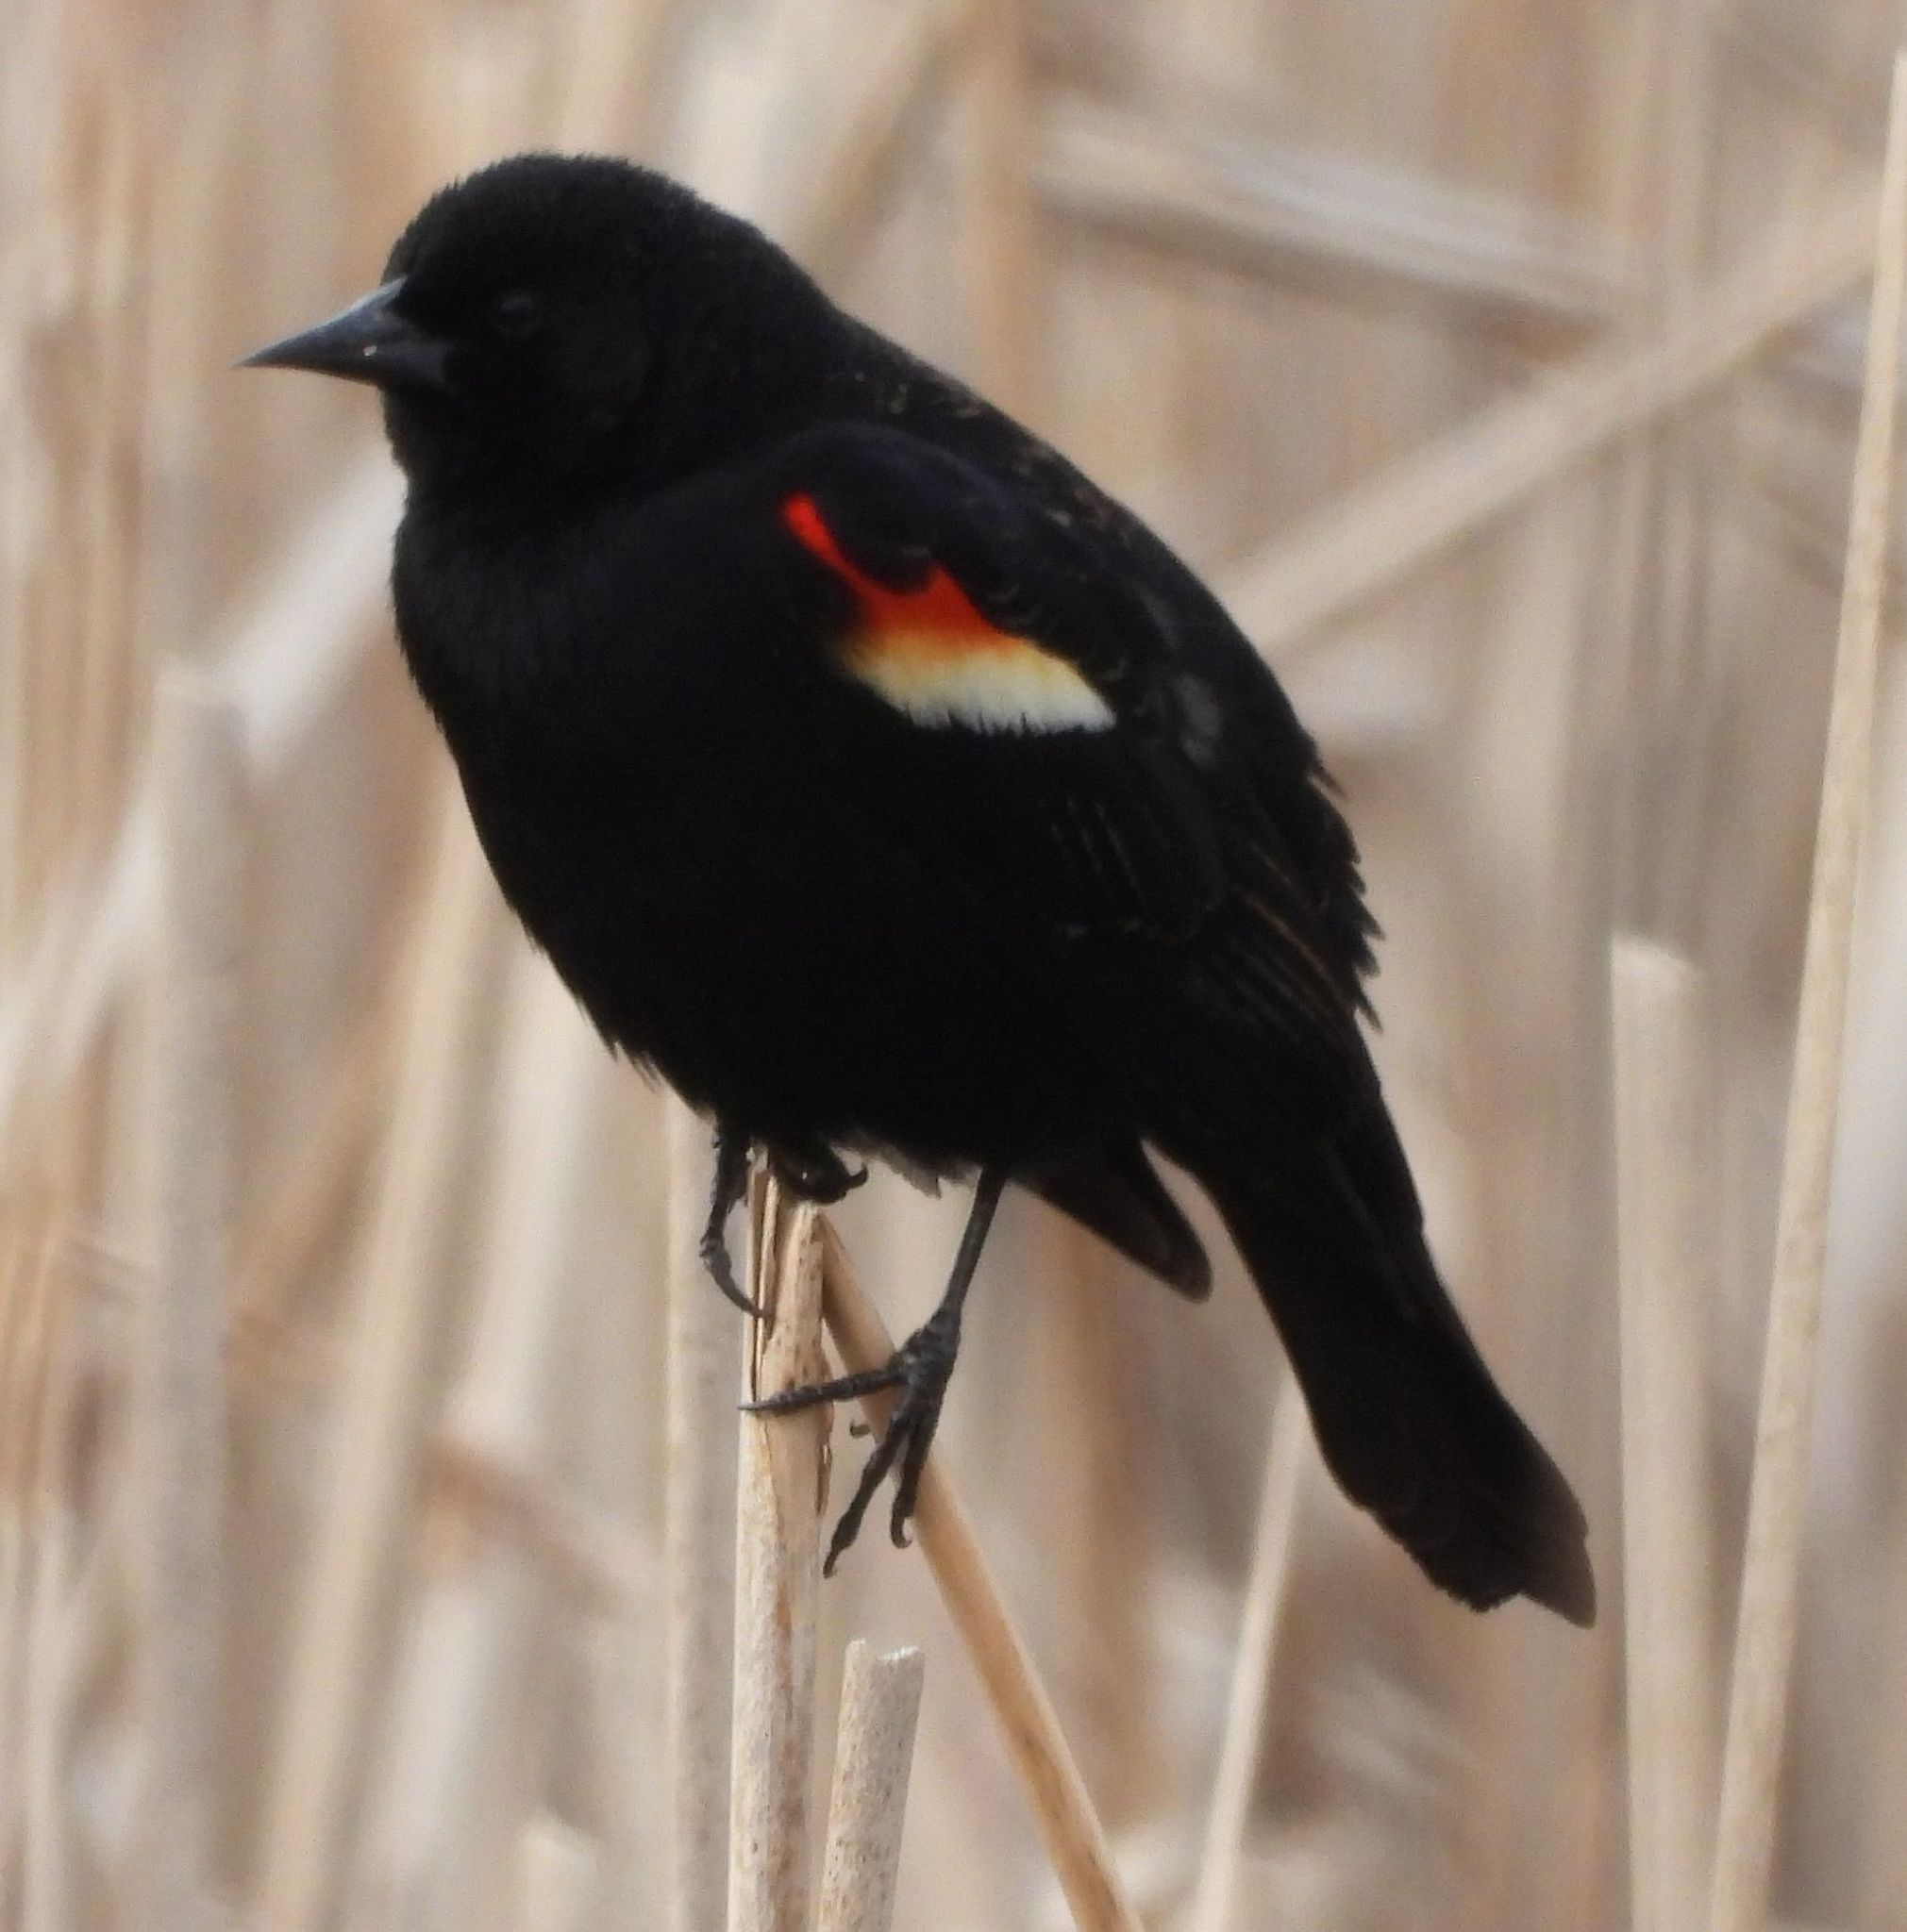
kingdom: Animalia
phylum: Chordata
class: Aves
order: Passeriformes
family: Icteridae
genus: Agelaius
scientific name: Agelaius phoeniceus
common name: Red-winged blackbird
